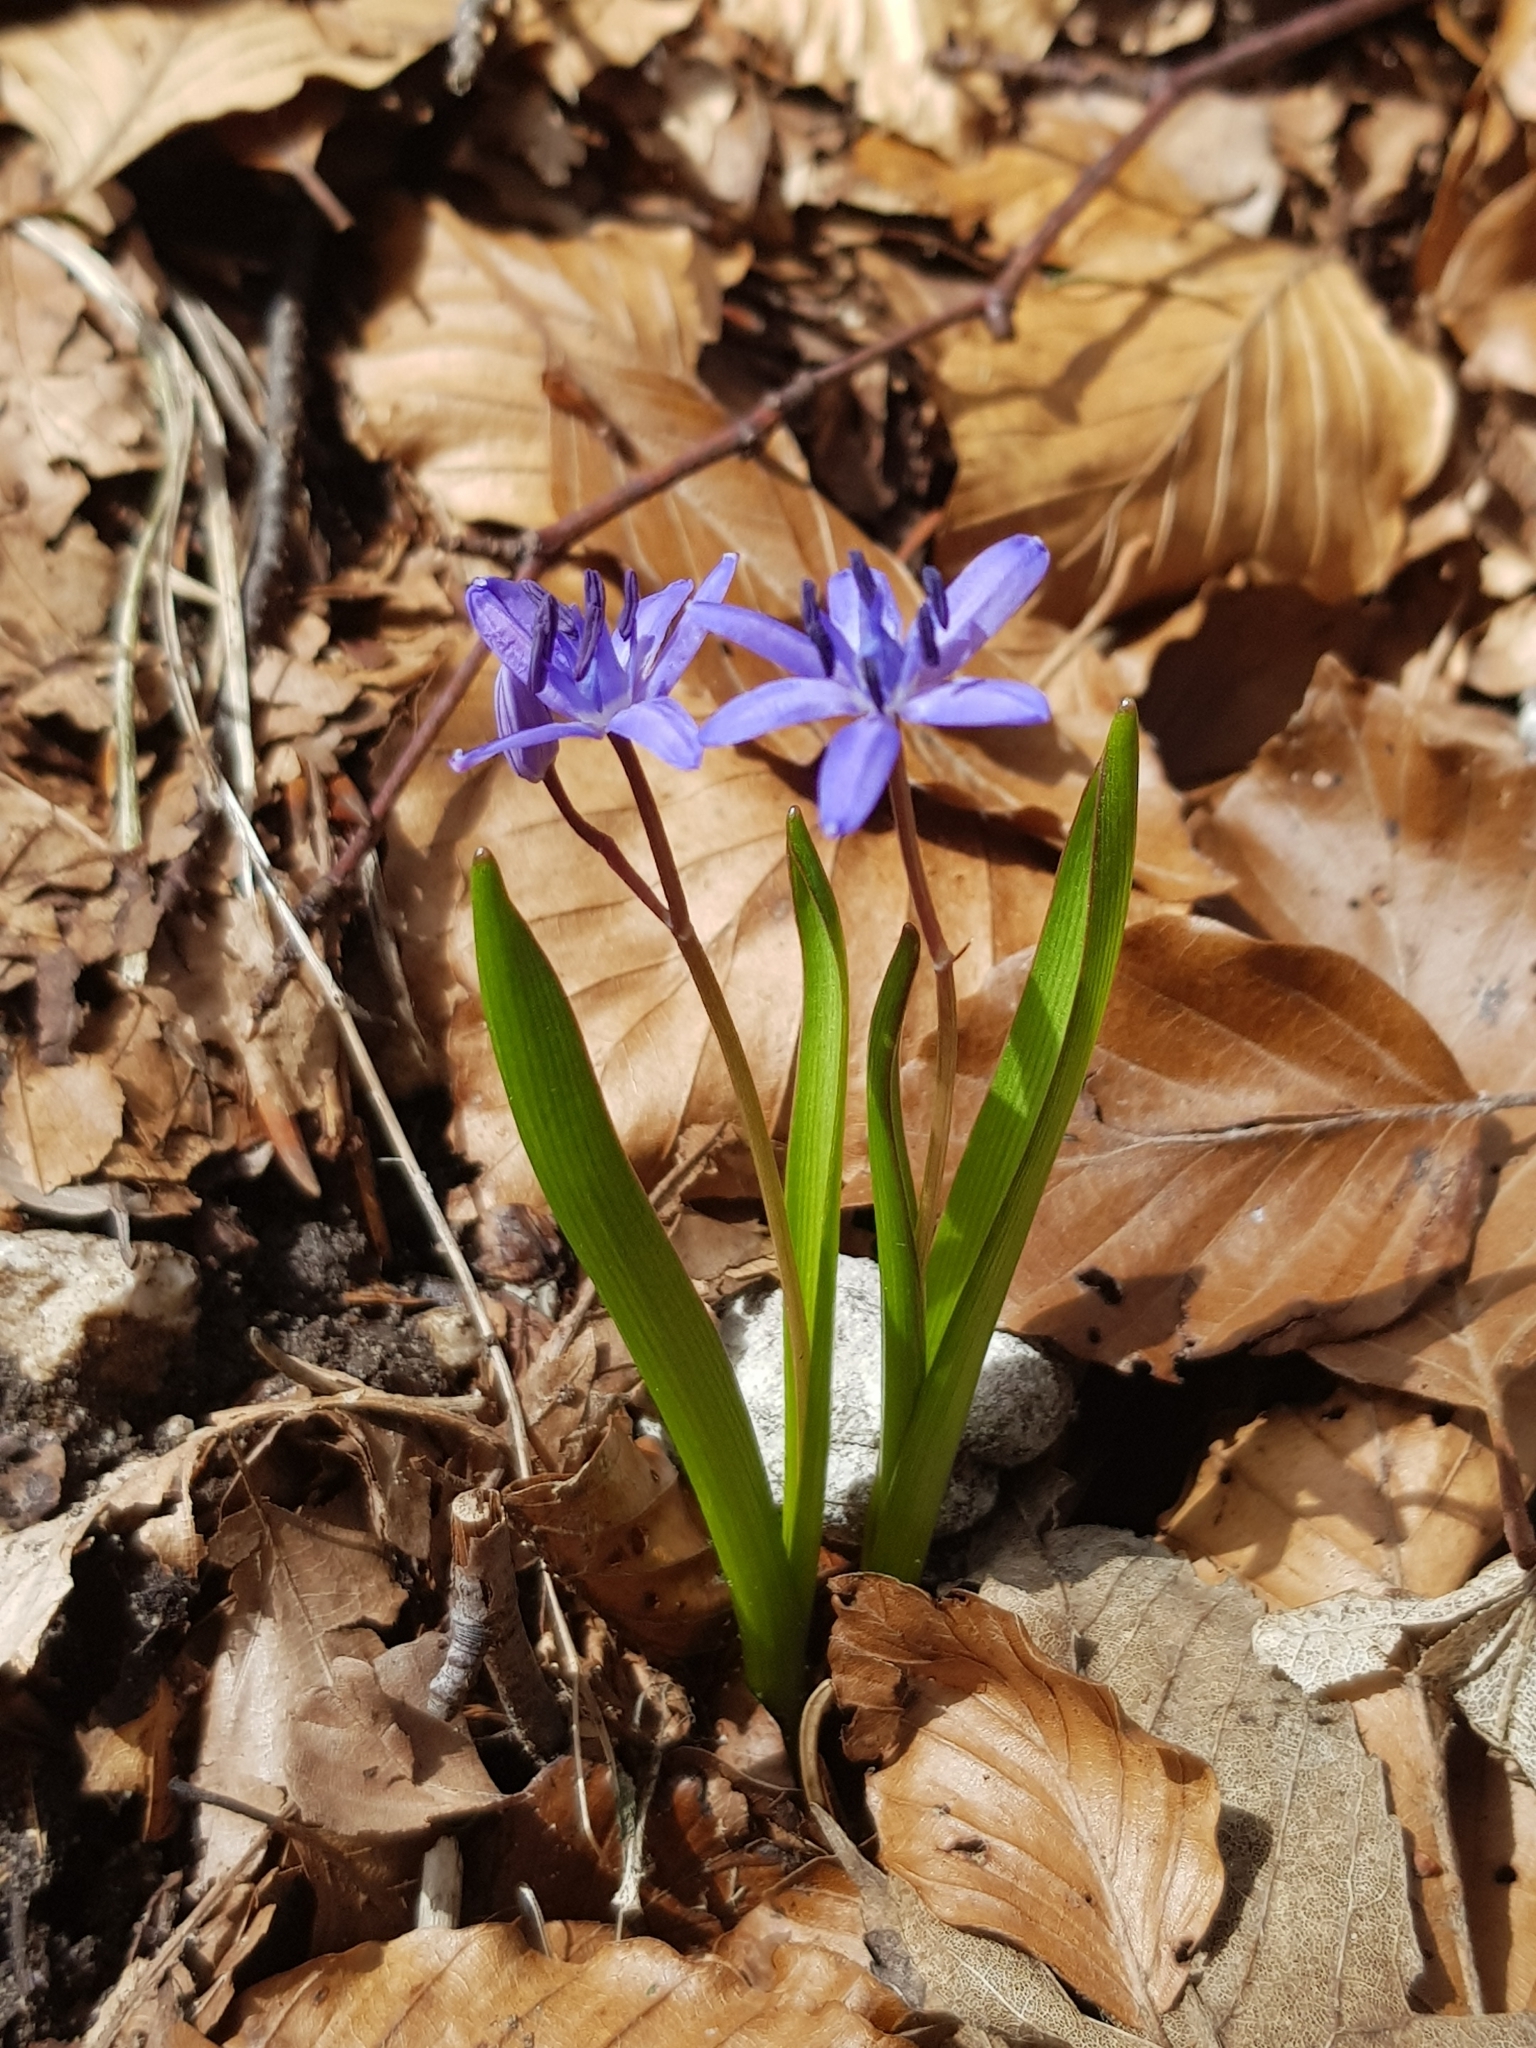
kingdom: Plantae
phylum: Tracheophyta
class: Liliopsida
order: Asparagales
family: Asparagaceae
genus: Scilla
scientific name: Scilla bifolia
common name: Alpine squill
